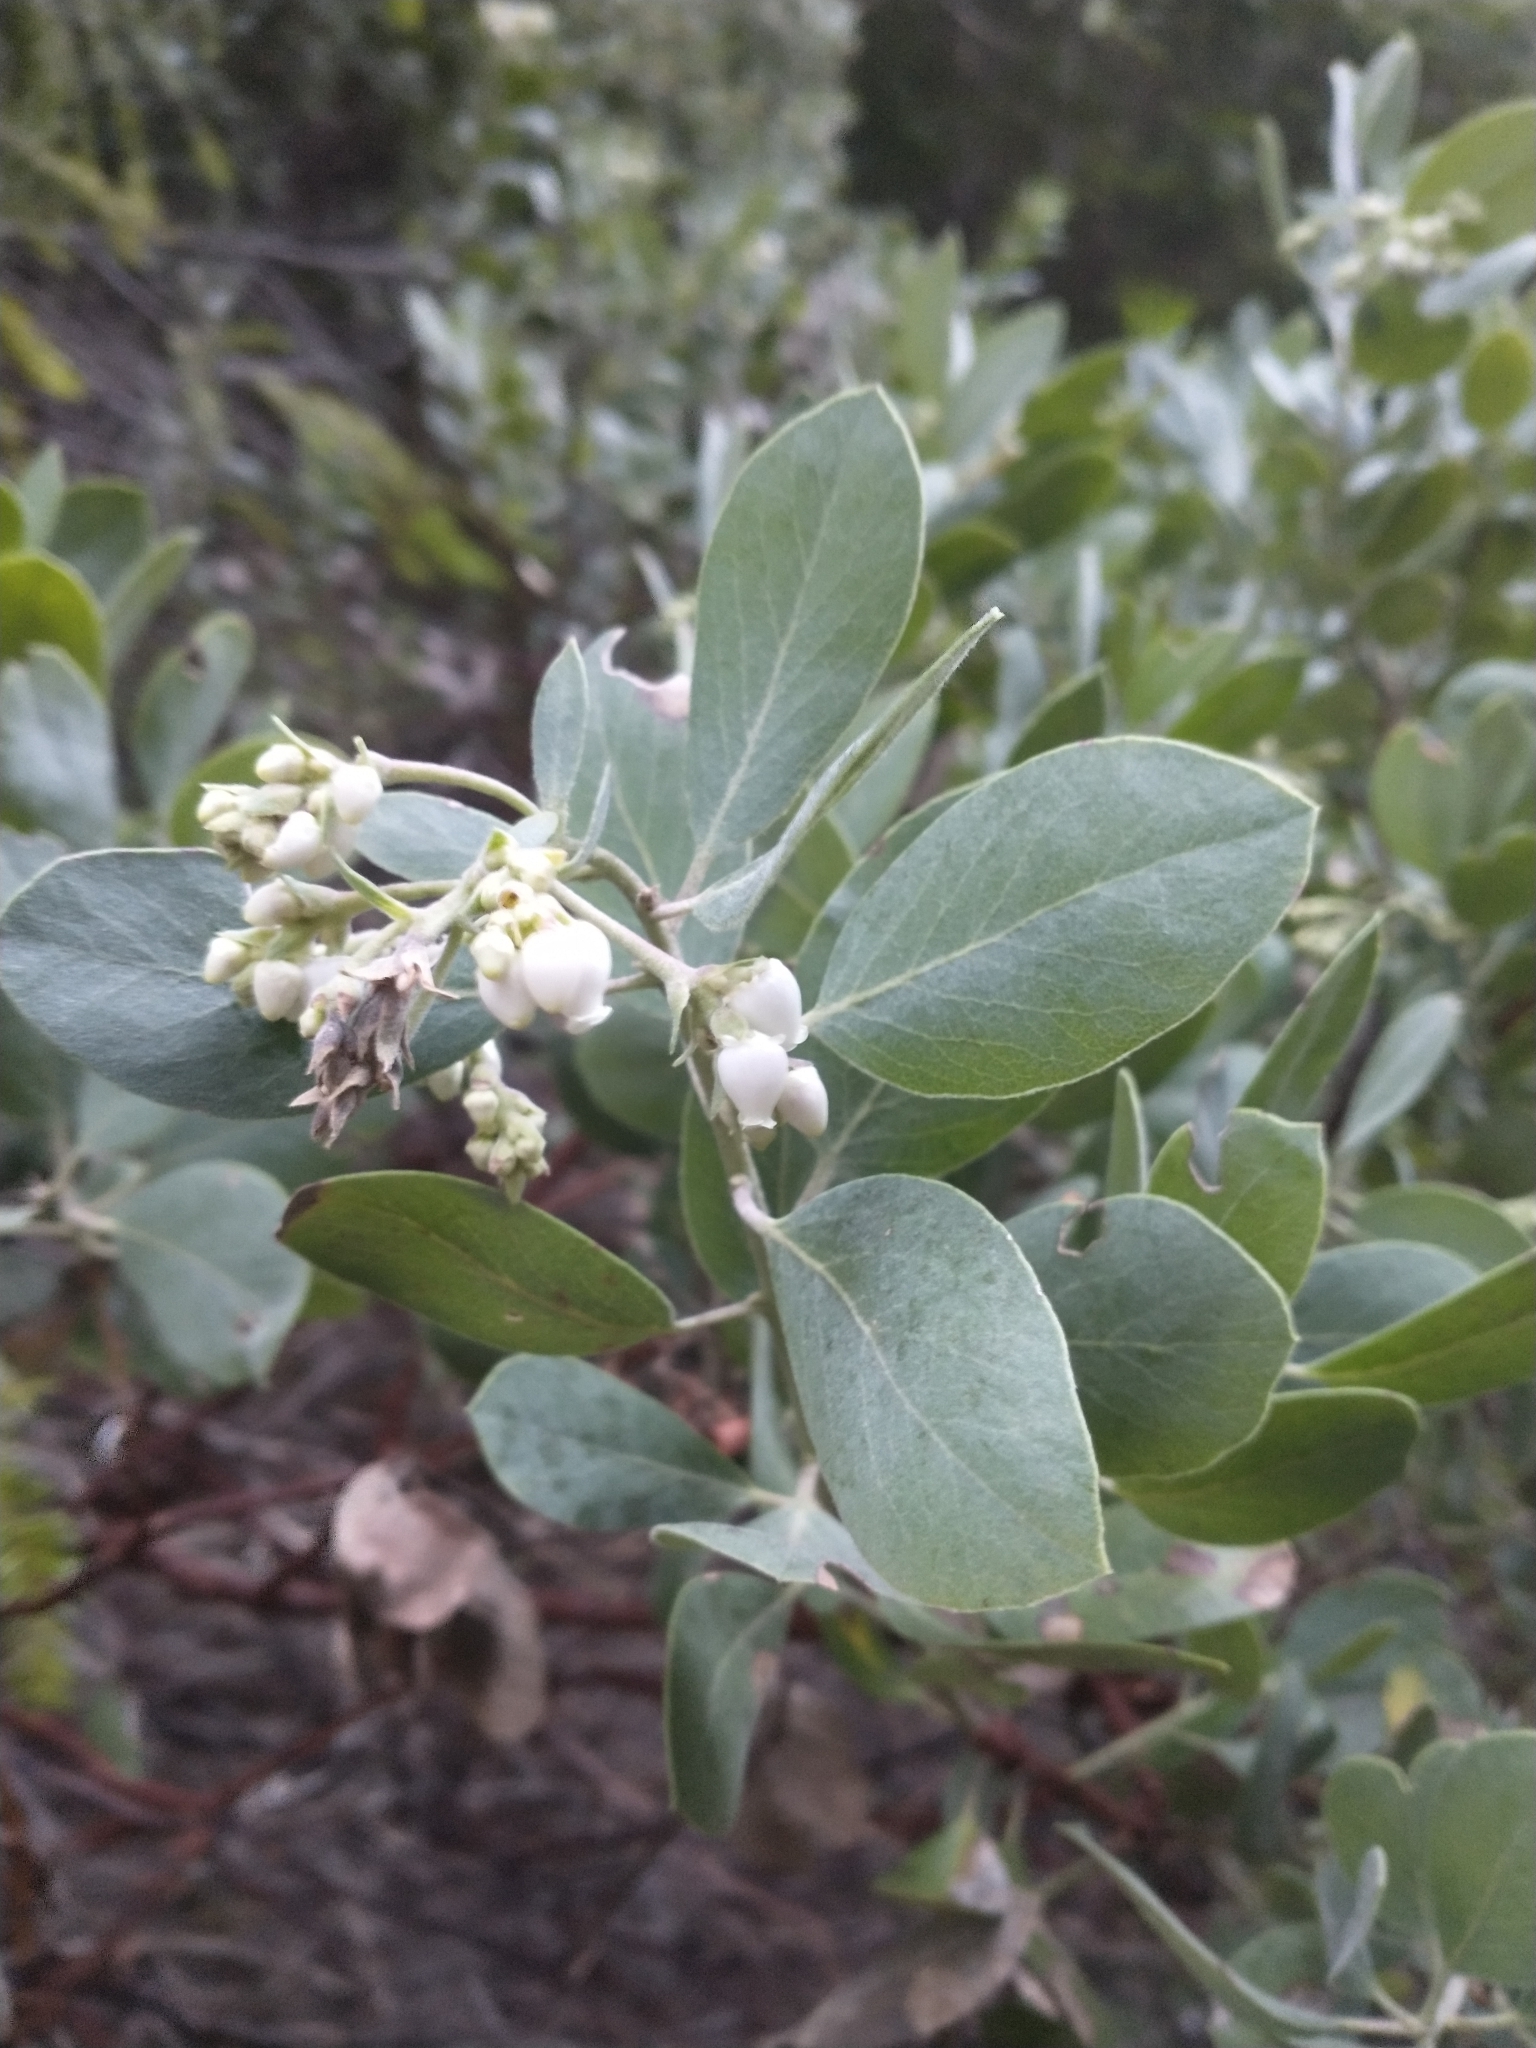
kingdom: Plantae
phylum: Tracheophyta
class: Magnoliopsida
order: Ericales
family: Ericaceae
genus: Arctostaphylos
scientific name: Arctostaphylos columbiana
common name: Bristly bearberry
